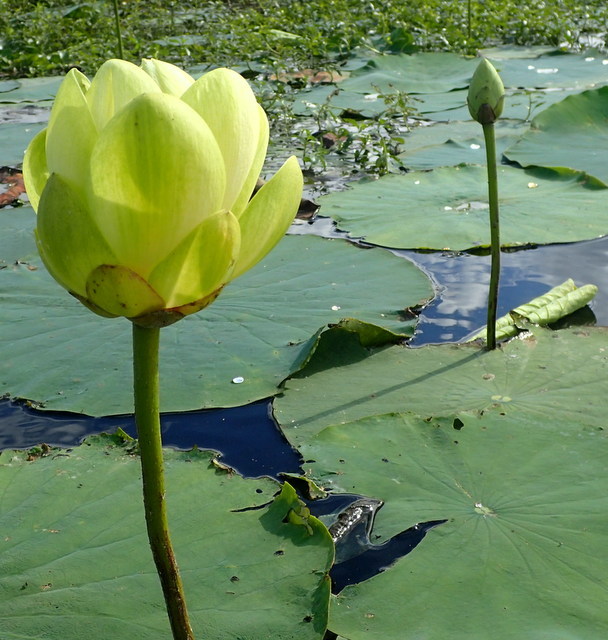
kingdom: Plantae
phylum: Tracheophyta
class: Magnoliopsida
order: Proteales
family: Nelumbonaceae
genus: Nelumbo
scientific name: Nelumbo lutea
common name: American lotus
